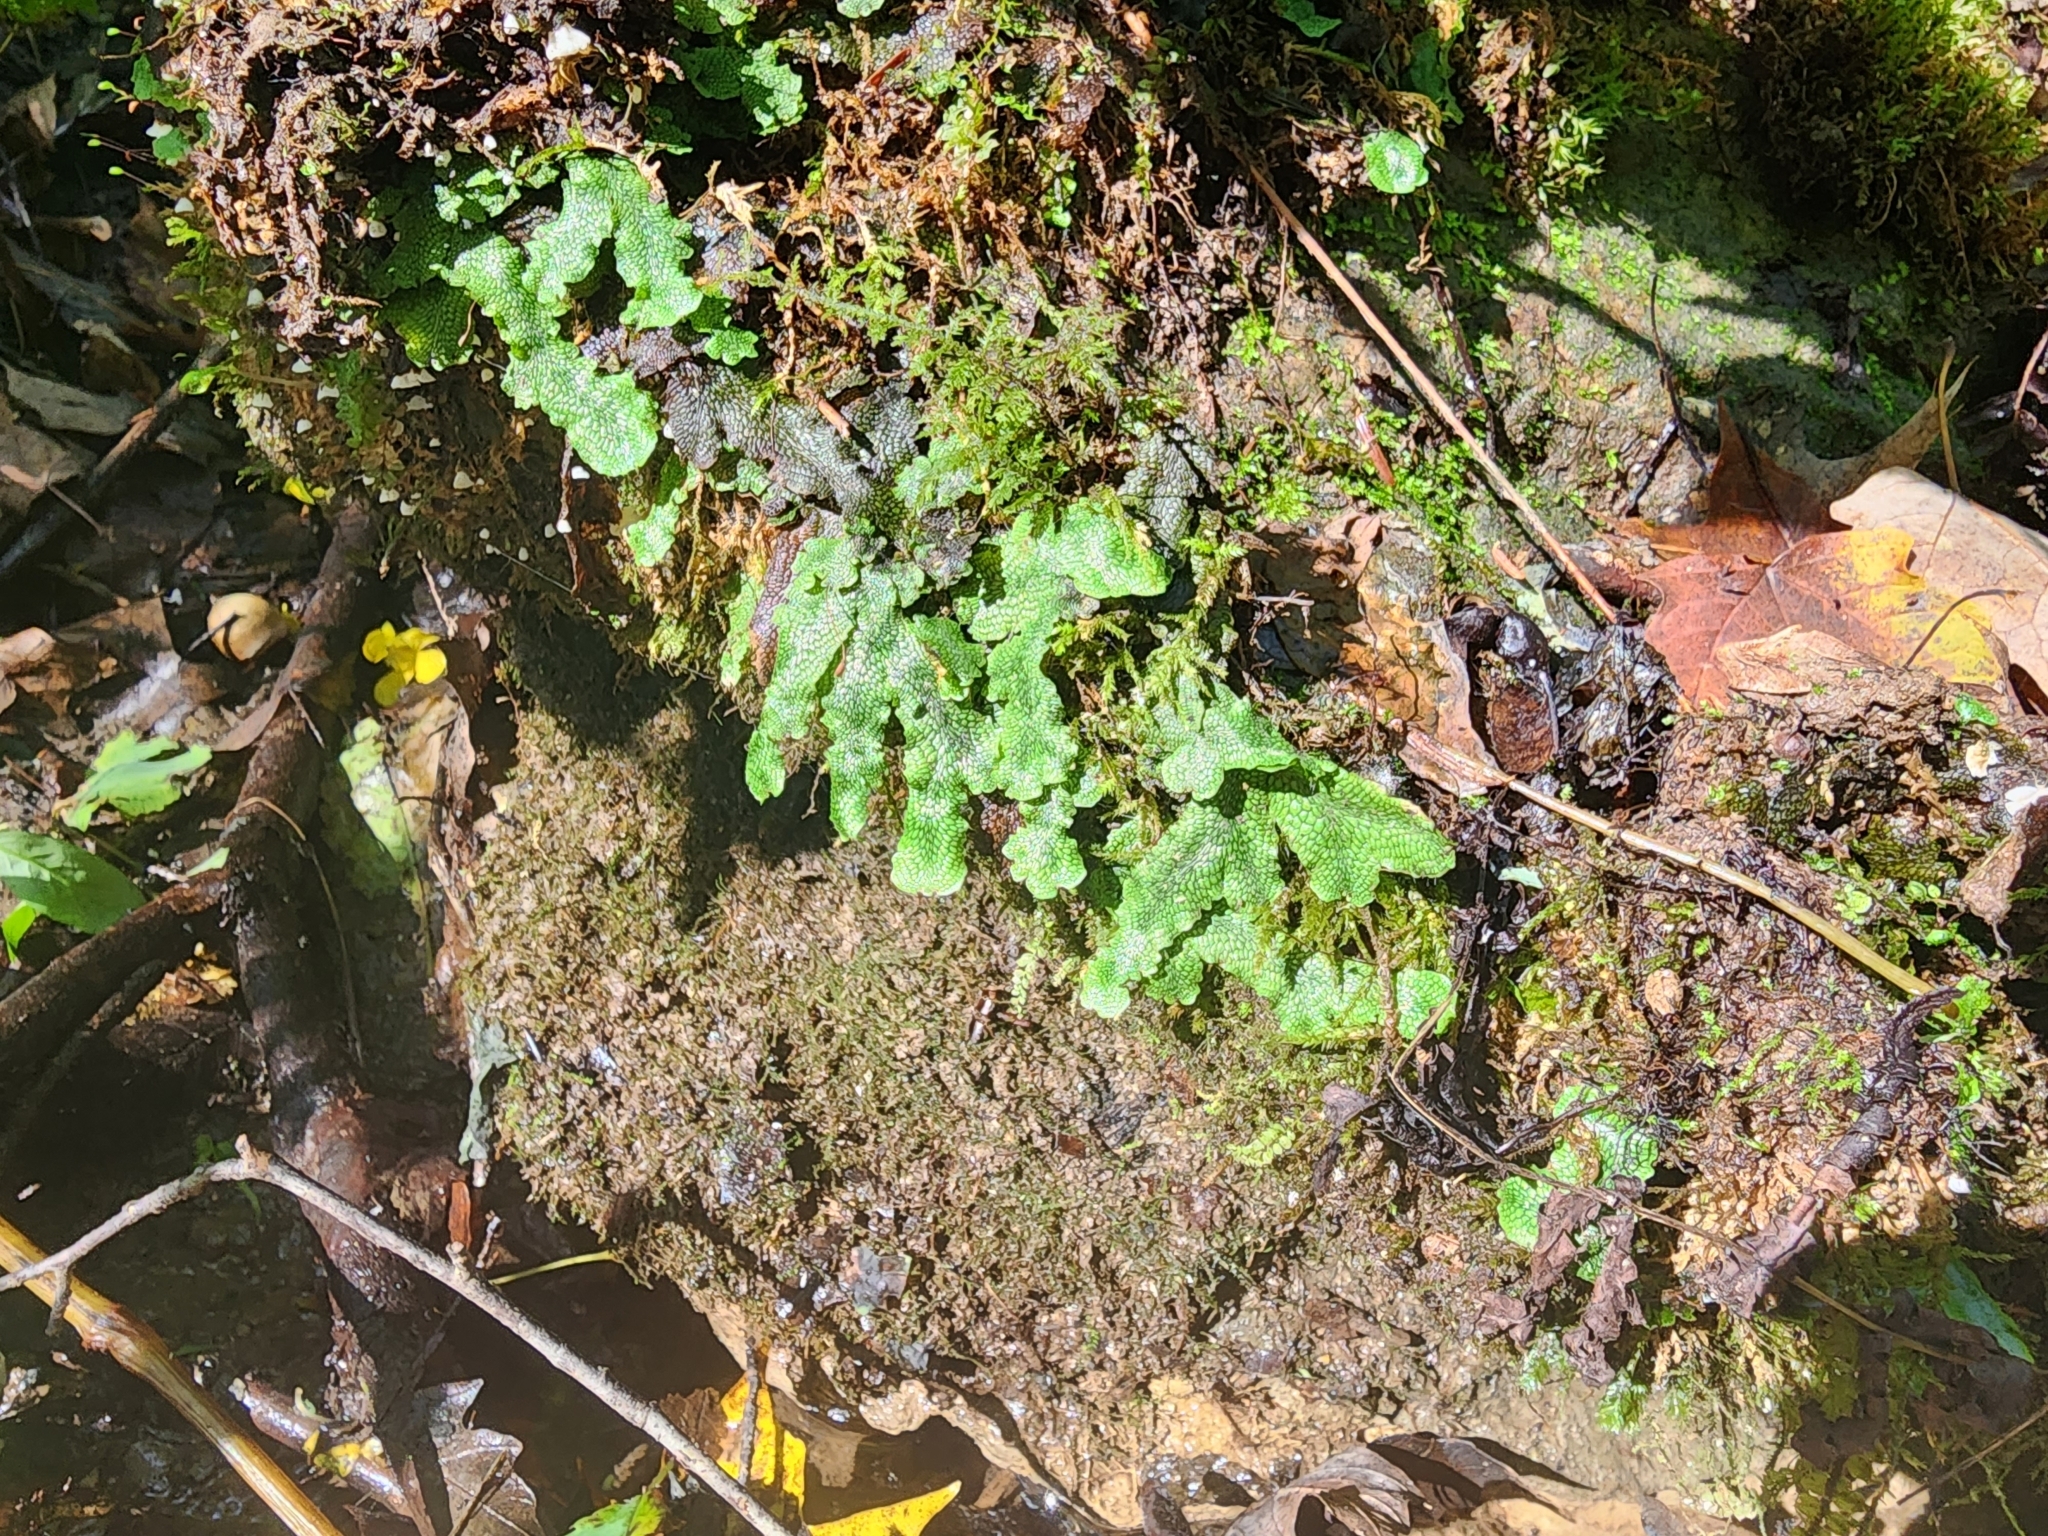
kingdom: Plantae
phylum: Marchantiophyta
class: Marchantiopsida
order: Marchantiales
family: Conocephalaceae
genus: Conocephalum
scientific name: Conocephalum salebrosum
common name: Cat-tongue liverwort
